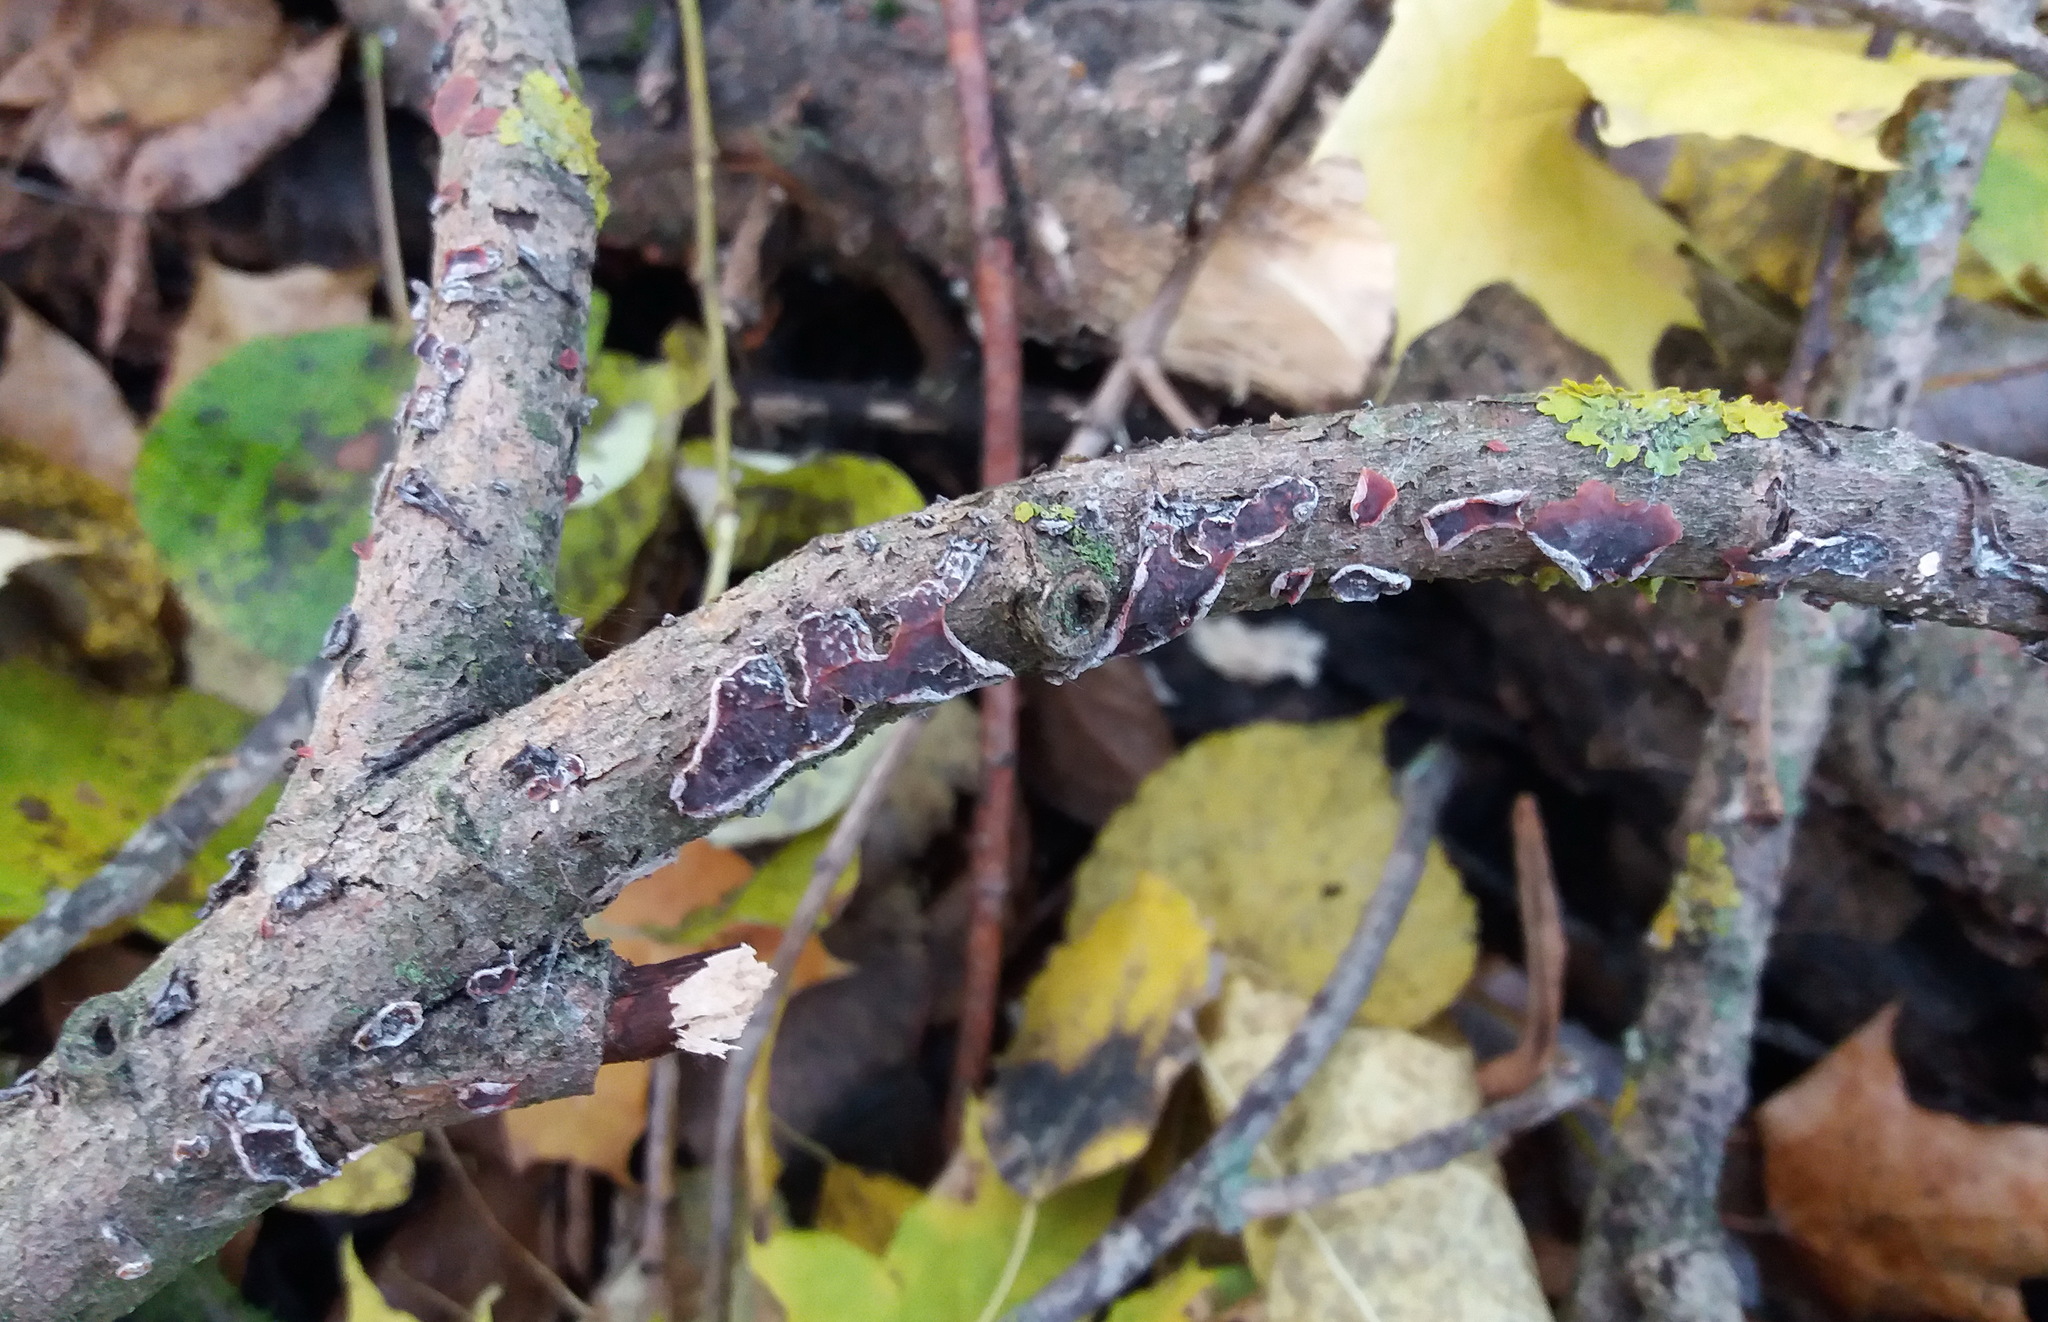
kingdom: Fungi
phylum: Basidiomycota
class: Agaricomycetes
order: Corticiales
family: Vuilleminiaceae
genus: Cytidia
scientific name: Cytidia salicina
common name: Scarlet splash
